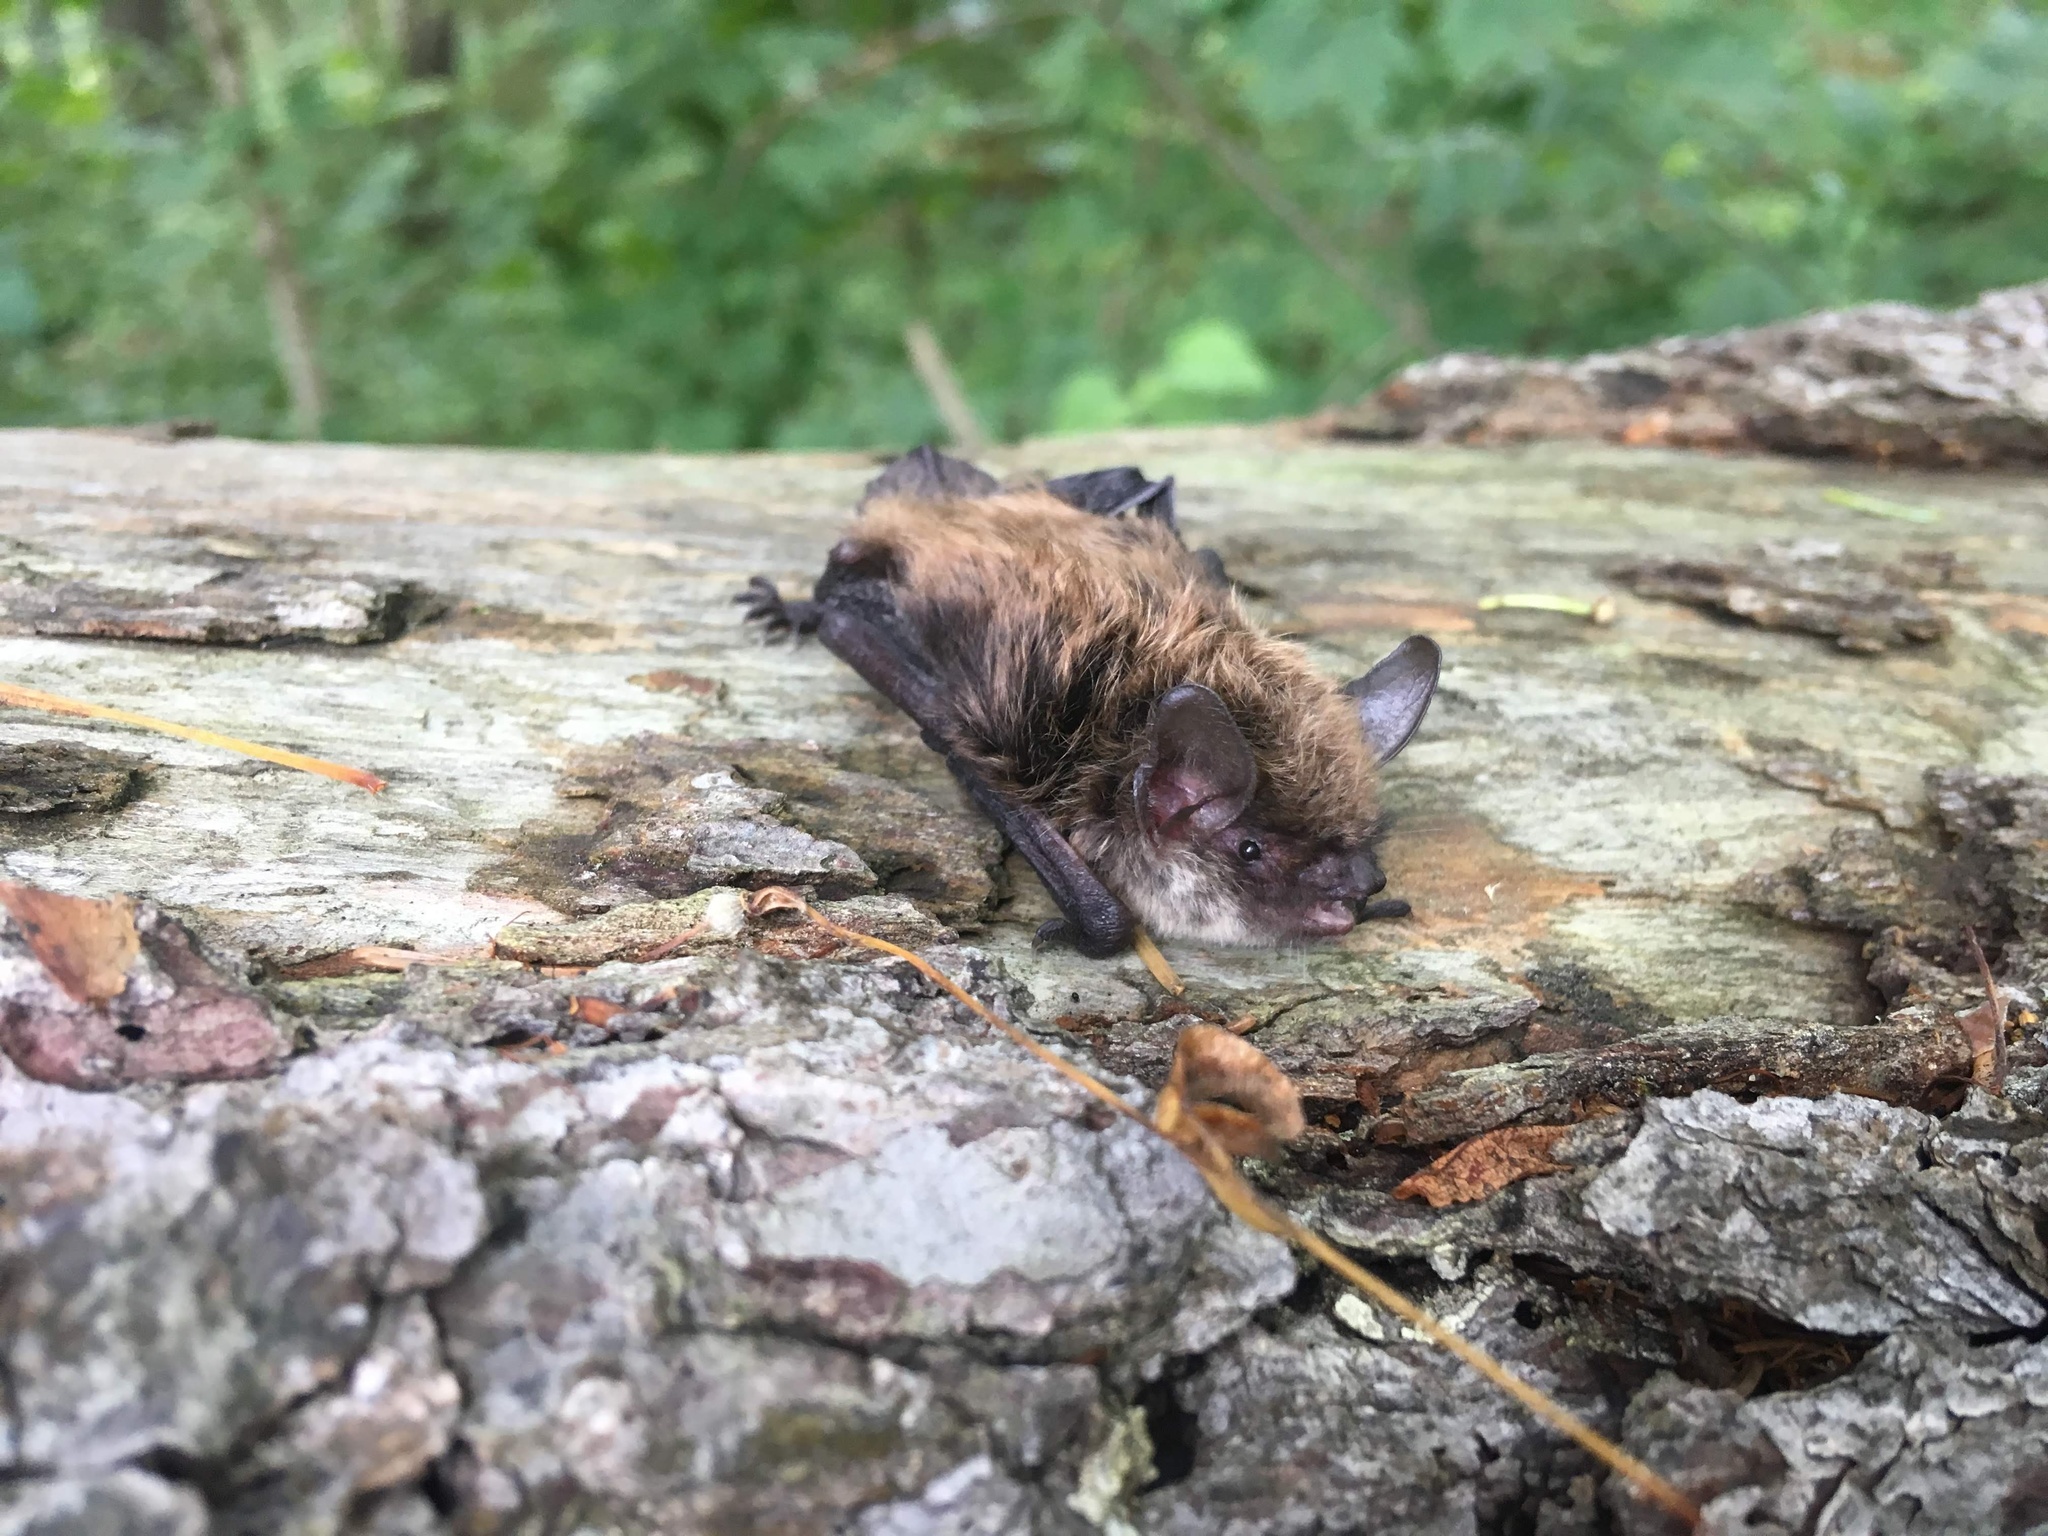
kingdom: Animalia
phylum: Chordata
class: Mammalia
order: Chiroptera
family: Vespertilionidae
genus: Myotis
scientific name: Myotis mystacinus
